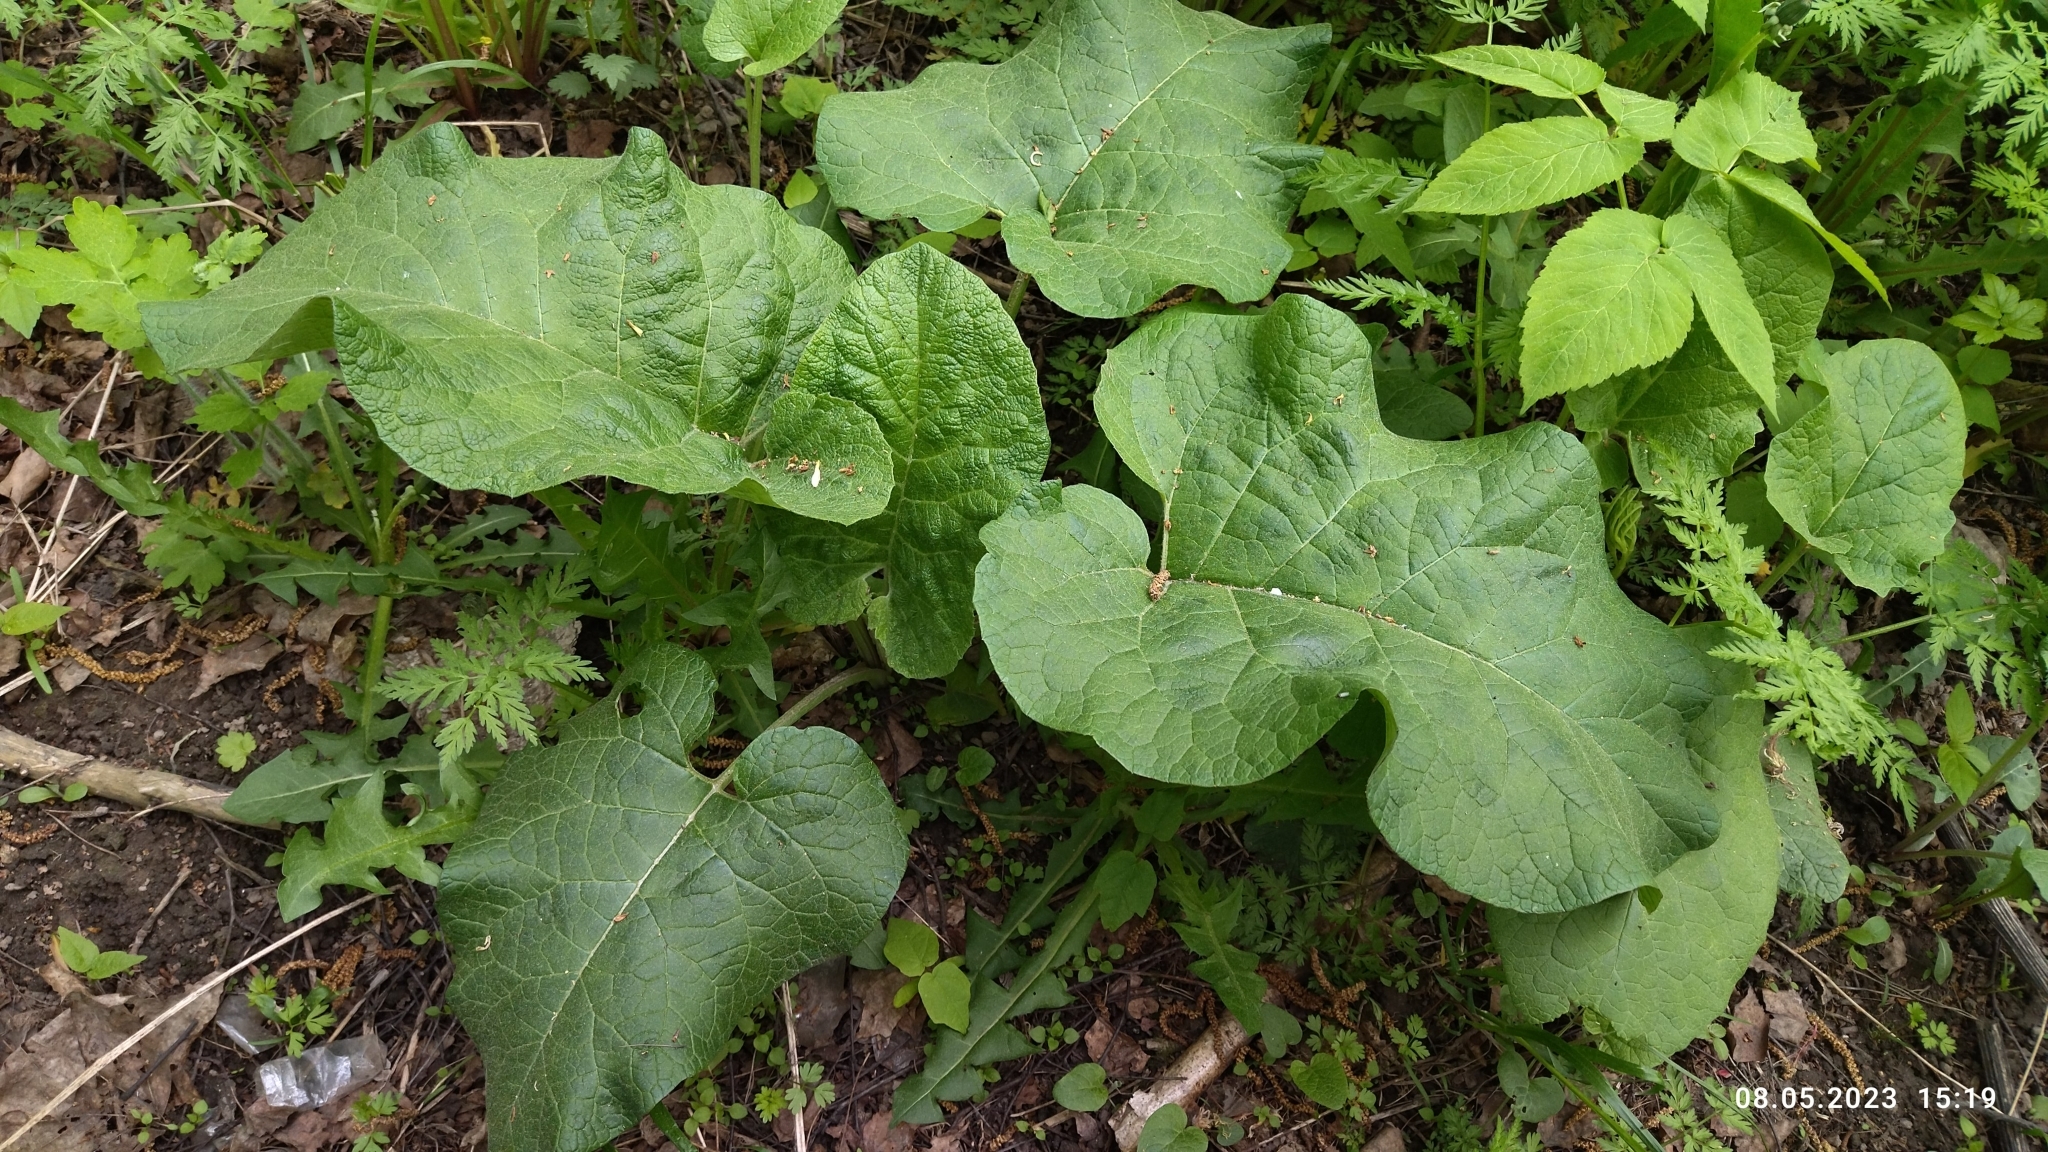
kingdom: Plantae
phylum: Tracheophyta
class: Magnoliopsida
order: Asterales
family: Asteraceae
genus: Arctium
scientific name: Arctium tomentosum
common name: Woolly burdock
